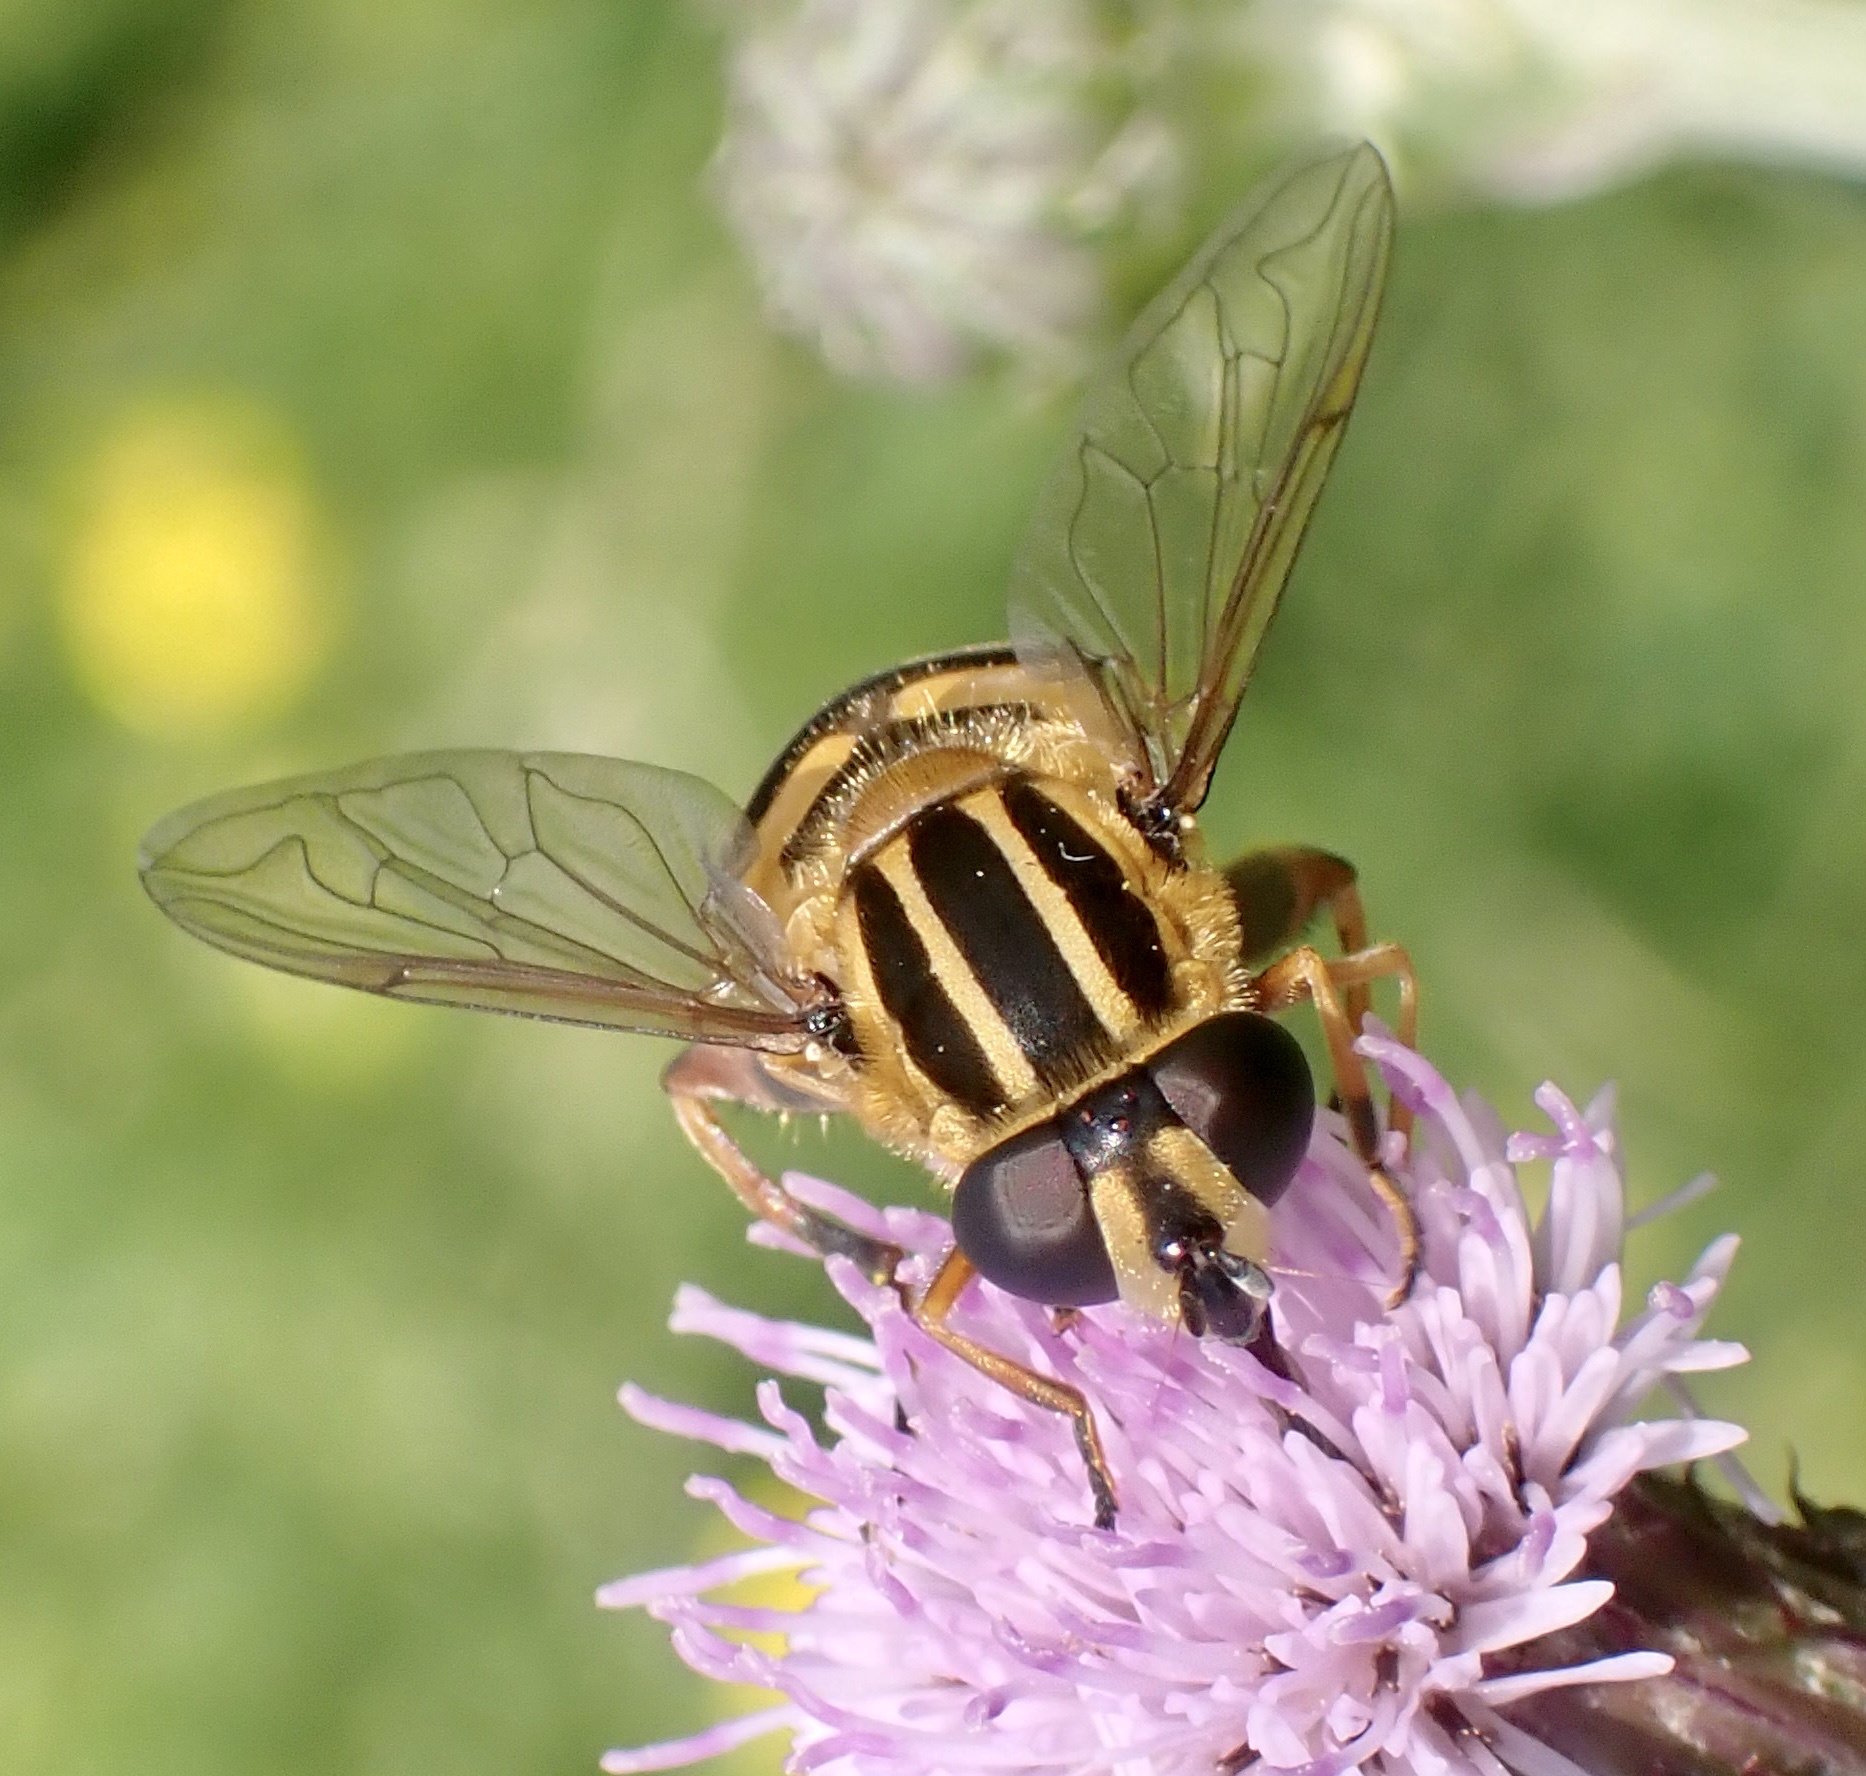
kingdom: Animalia
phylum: Arthropoda
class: Insecta
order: Diptera
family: Syrphidae
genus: Helophilus
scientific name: Helophilus pendulus
